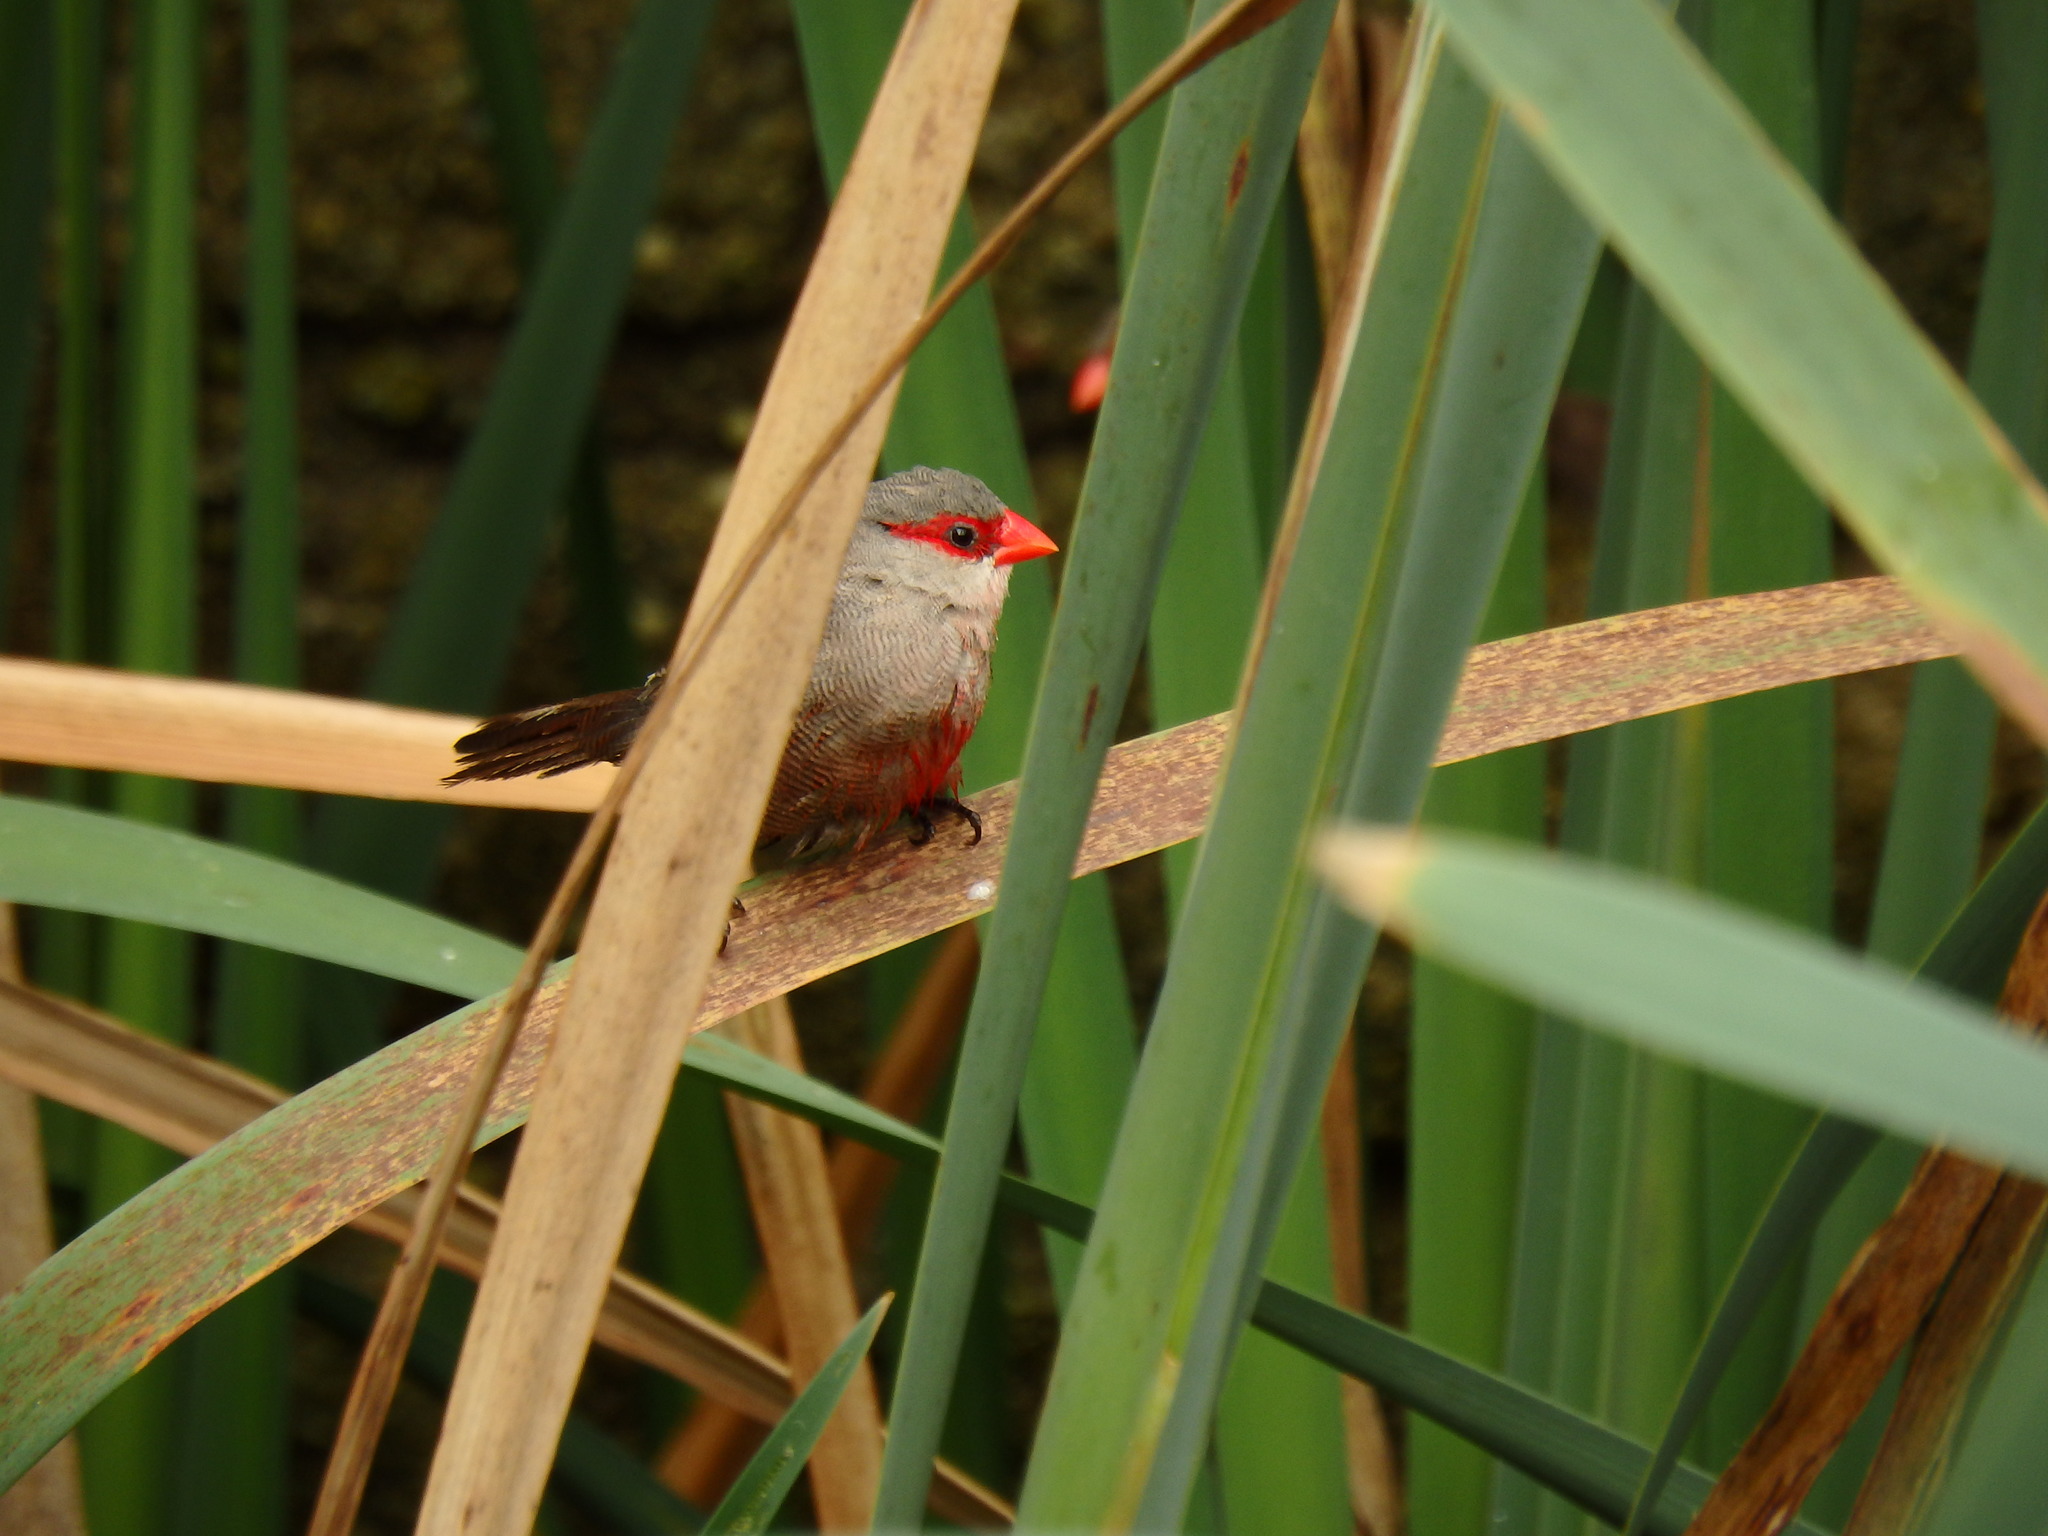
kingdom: Animalia
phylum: Chordata
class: Aves
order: Passeriformes
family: Estrildidae
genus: Estrilda
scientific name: Estrilda astrild
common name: Common waxbill
